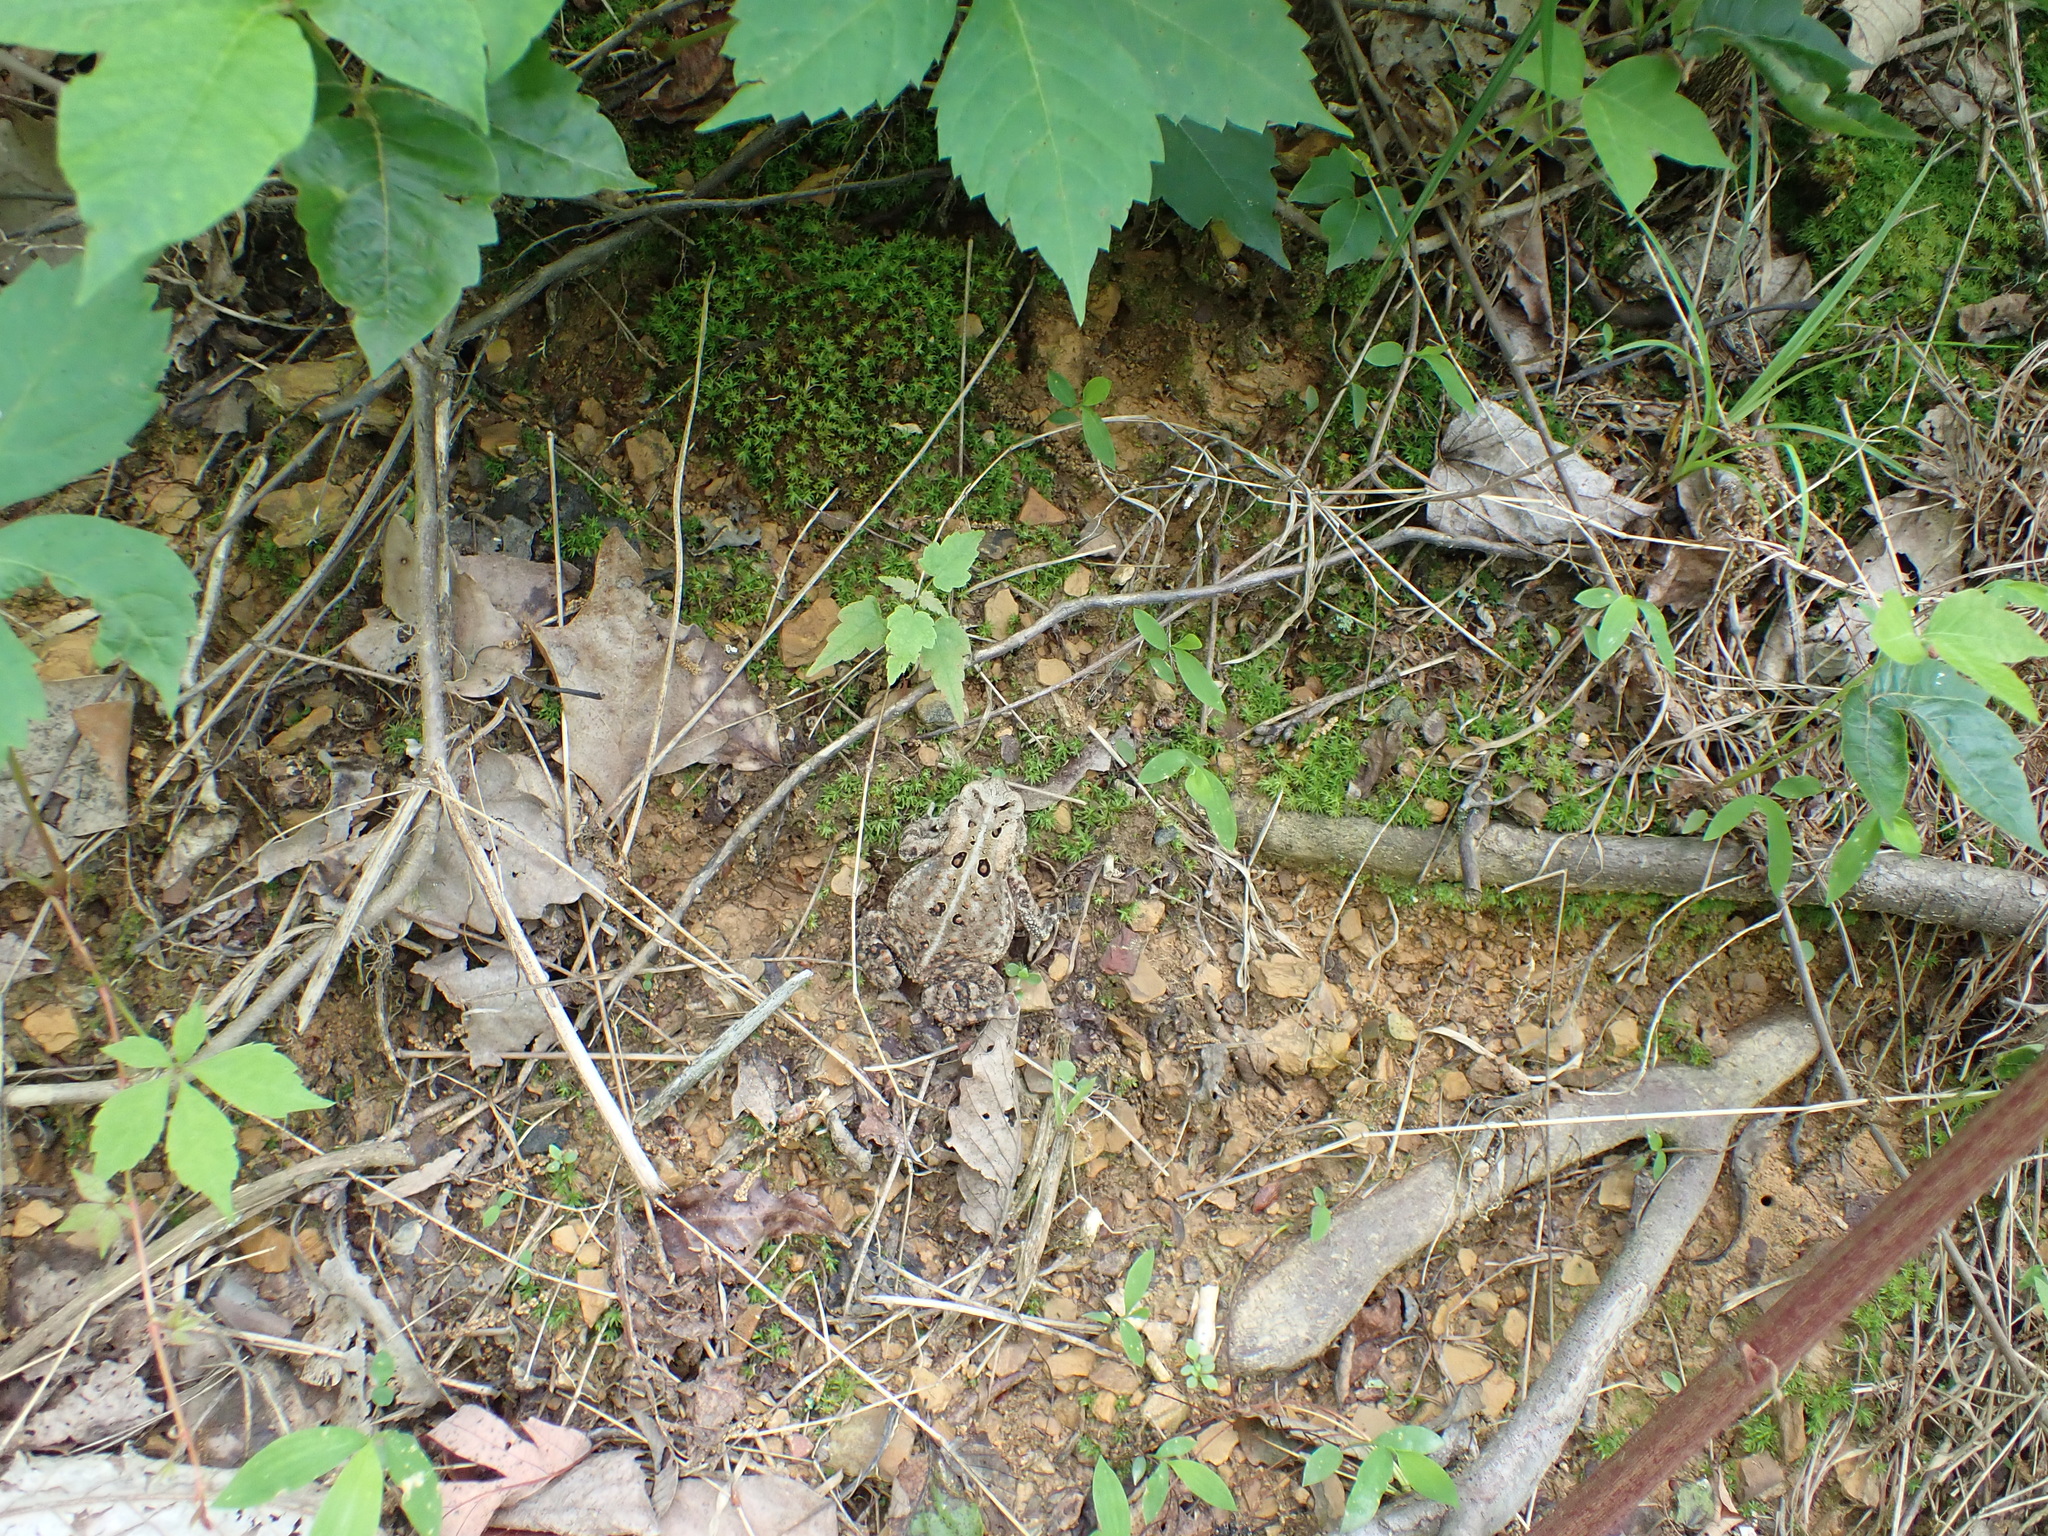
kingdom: Animalia
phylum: Chordata
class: Amphibia
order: Anura
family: Bufonidae
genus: Anaxyrus
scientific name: Anaxyrus americanus
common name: American toad
